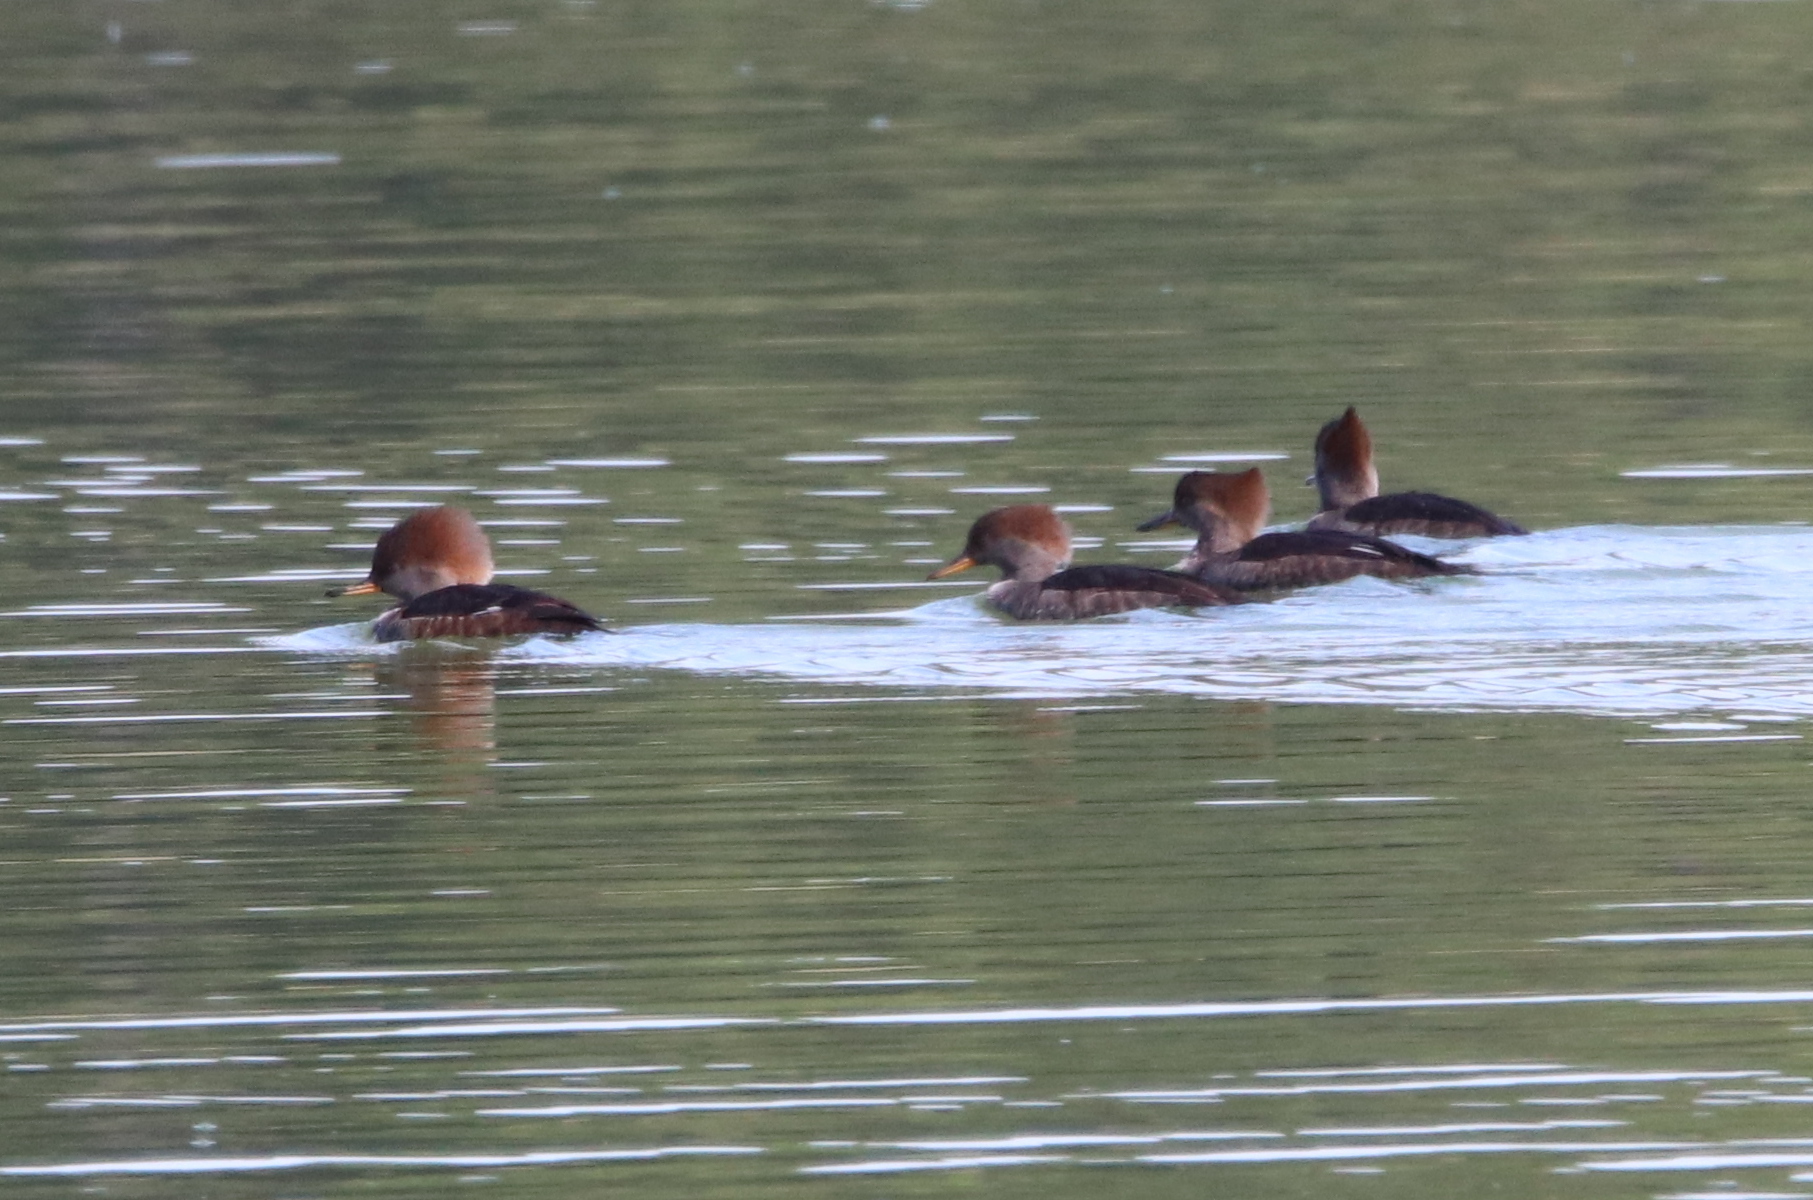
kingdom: Animalia
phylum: Chordata
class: Aves
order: Anseriformes
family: Anatidae
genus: Lophodytes
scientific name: Lophodytes cucullatus
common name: Hooded merganser
